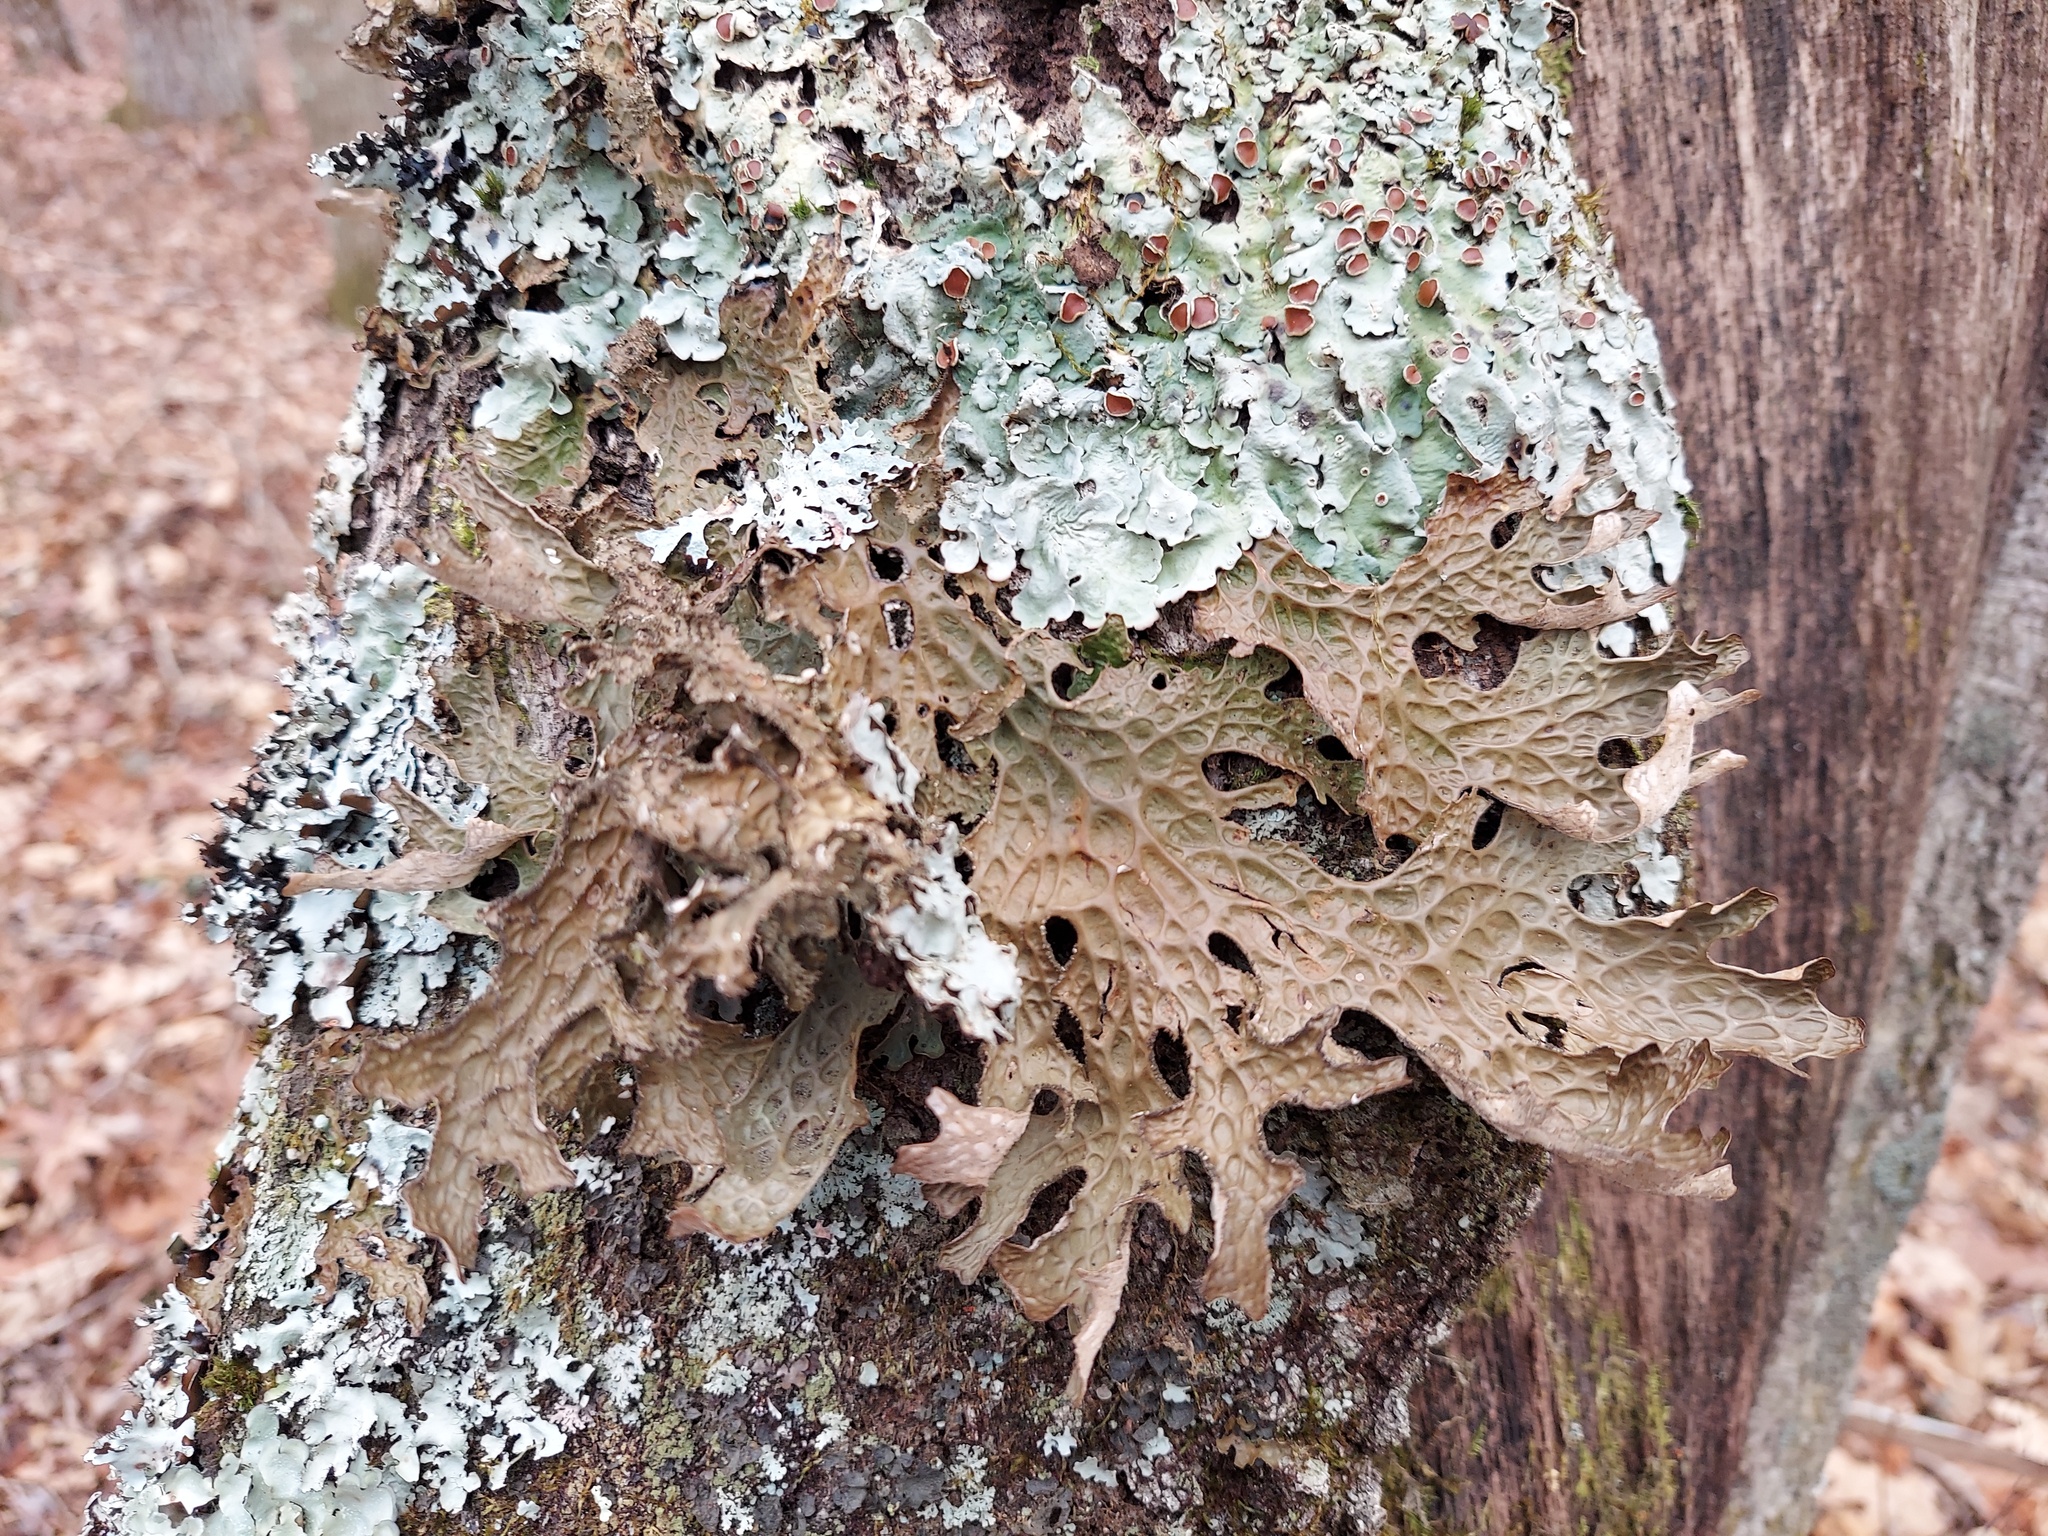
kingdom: Fungi
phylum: Ascomycota
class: Lecanoromycetes
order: Peltigerales
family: Lobariaceae
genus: Lobaria
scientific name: Lobaria pulmonaria
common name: Lungwort
